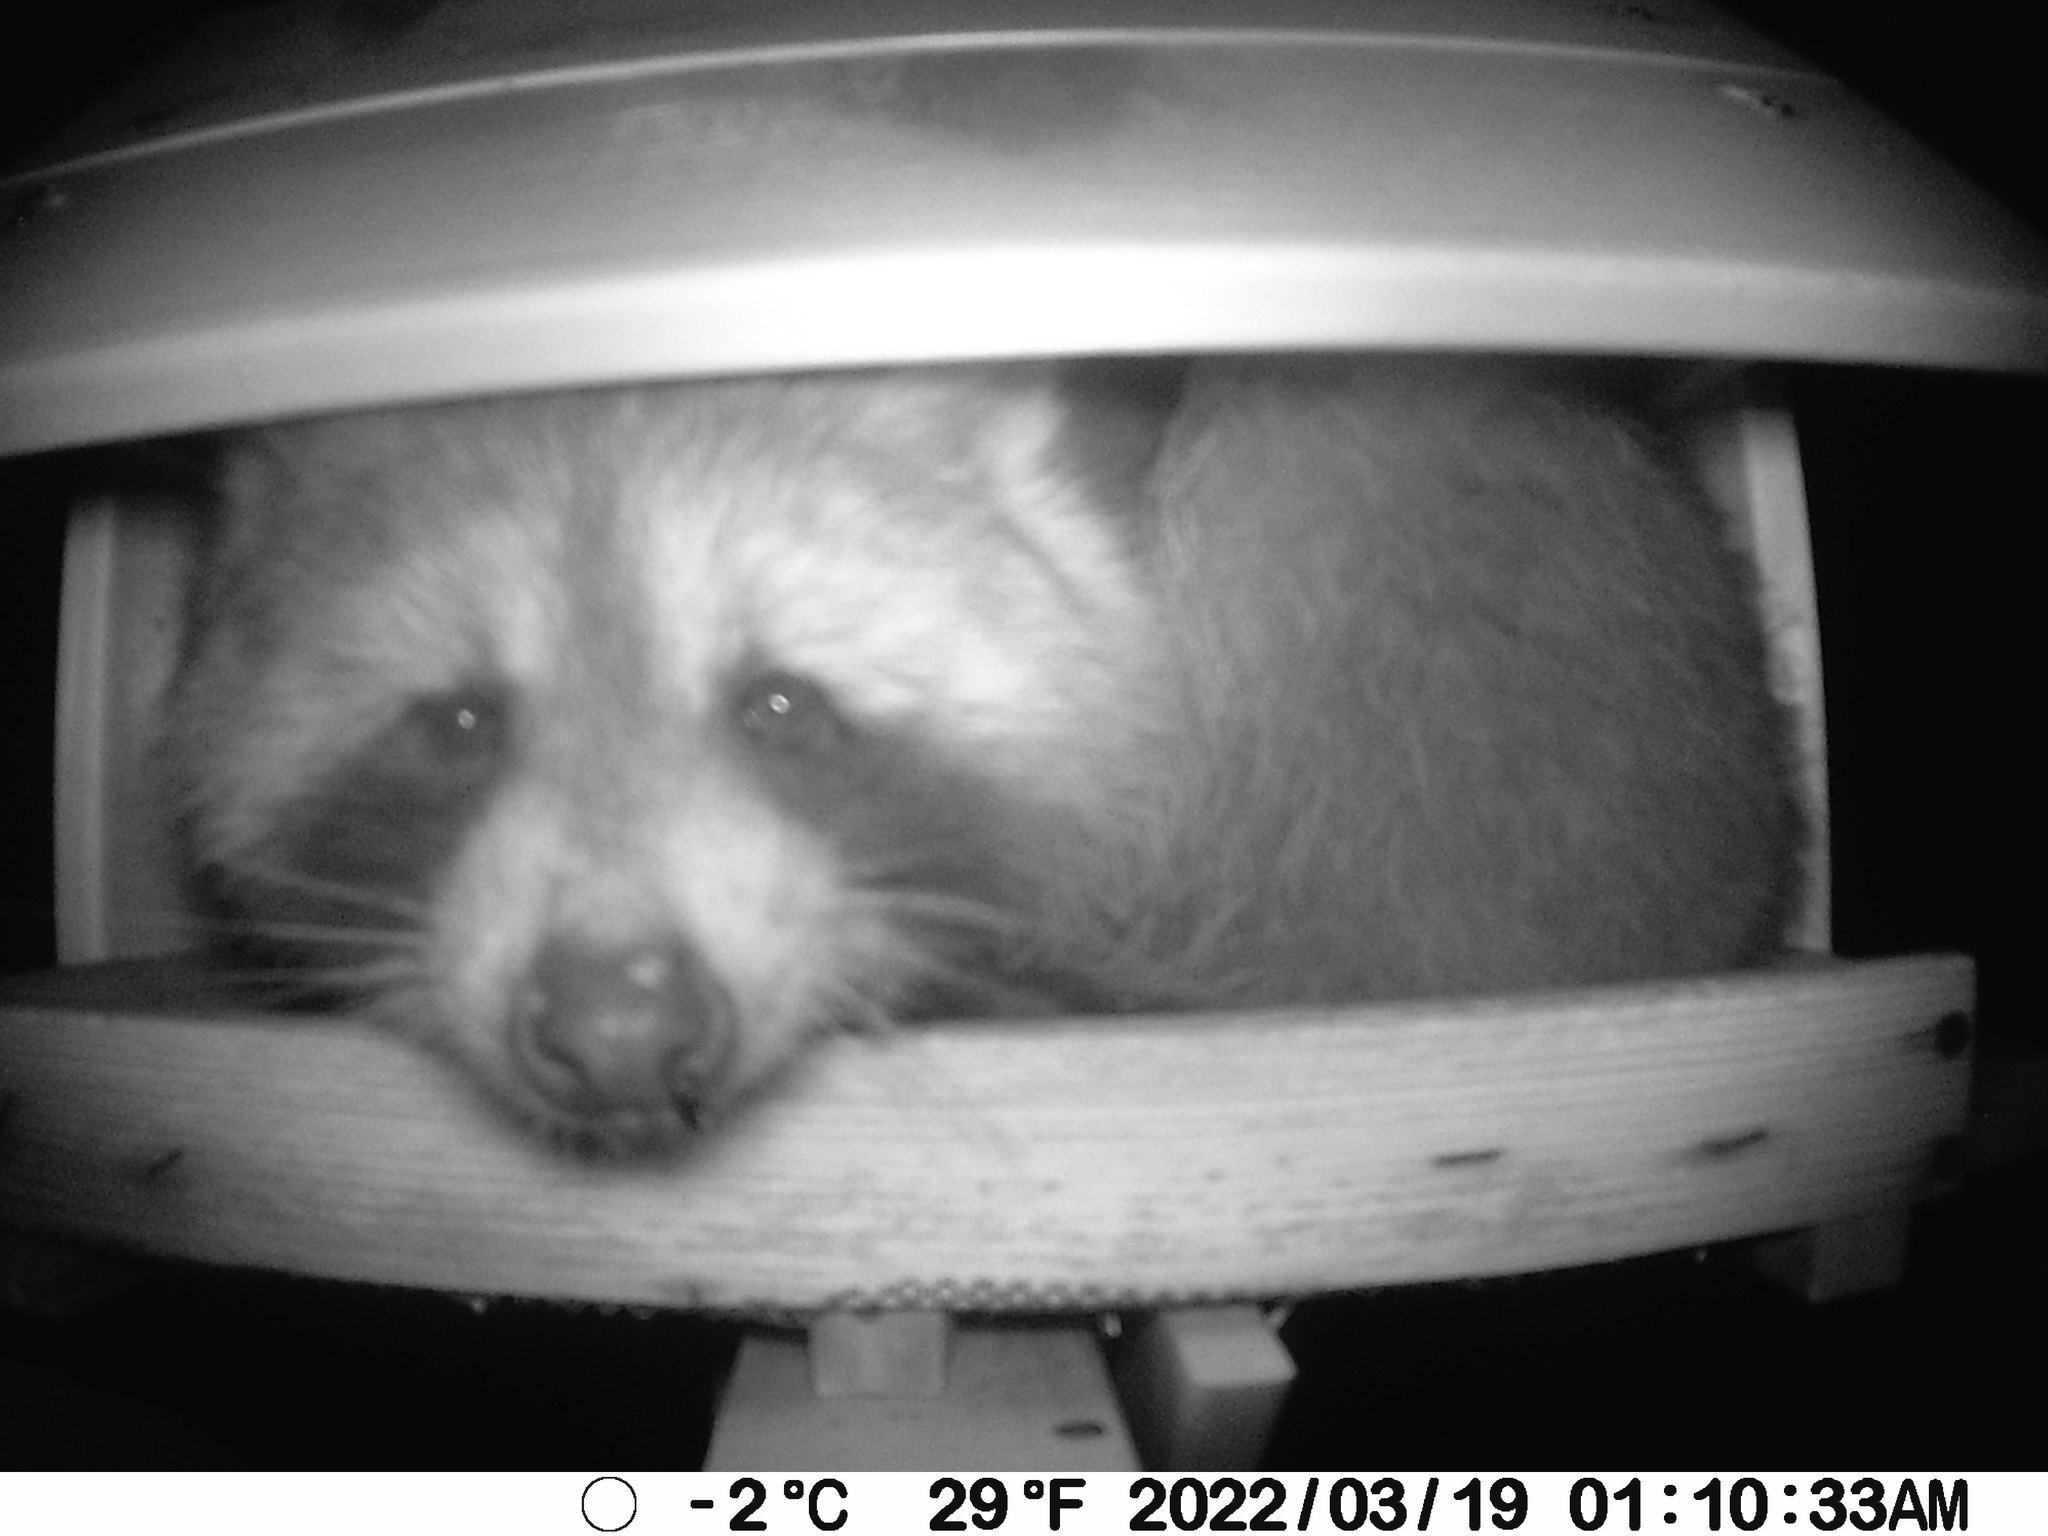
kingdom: Animalia
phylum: Chordata
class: Mammalia
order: Carnivora
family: Procyonidae
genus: Procyon
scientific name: Procyon lotor
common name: Raccoon
